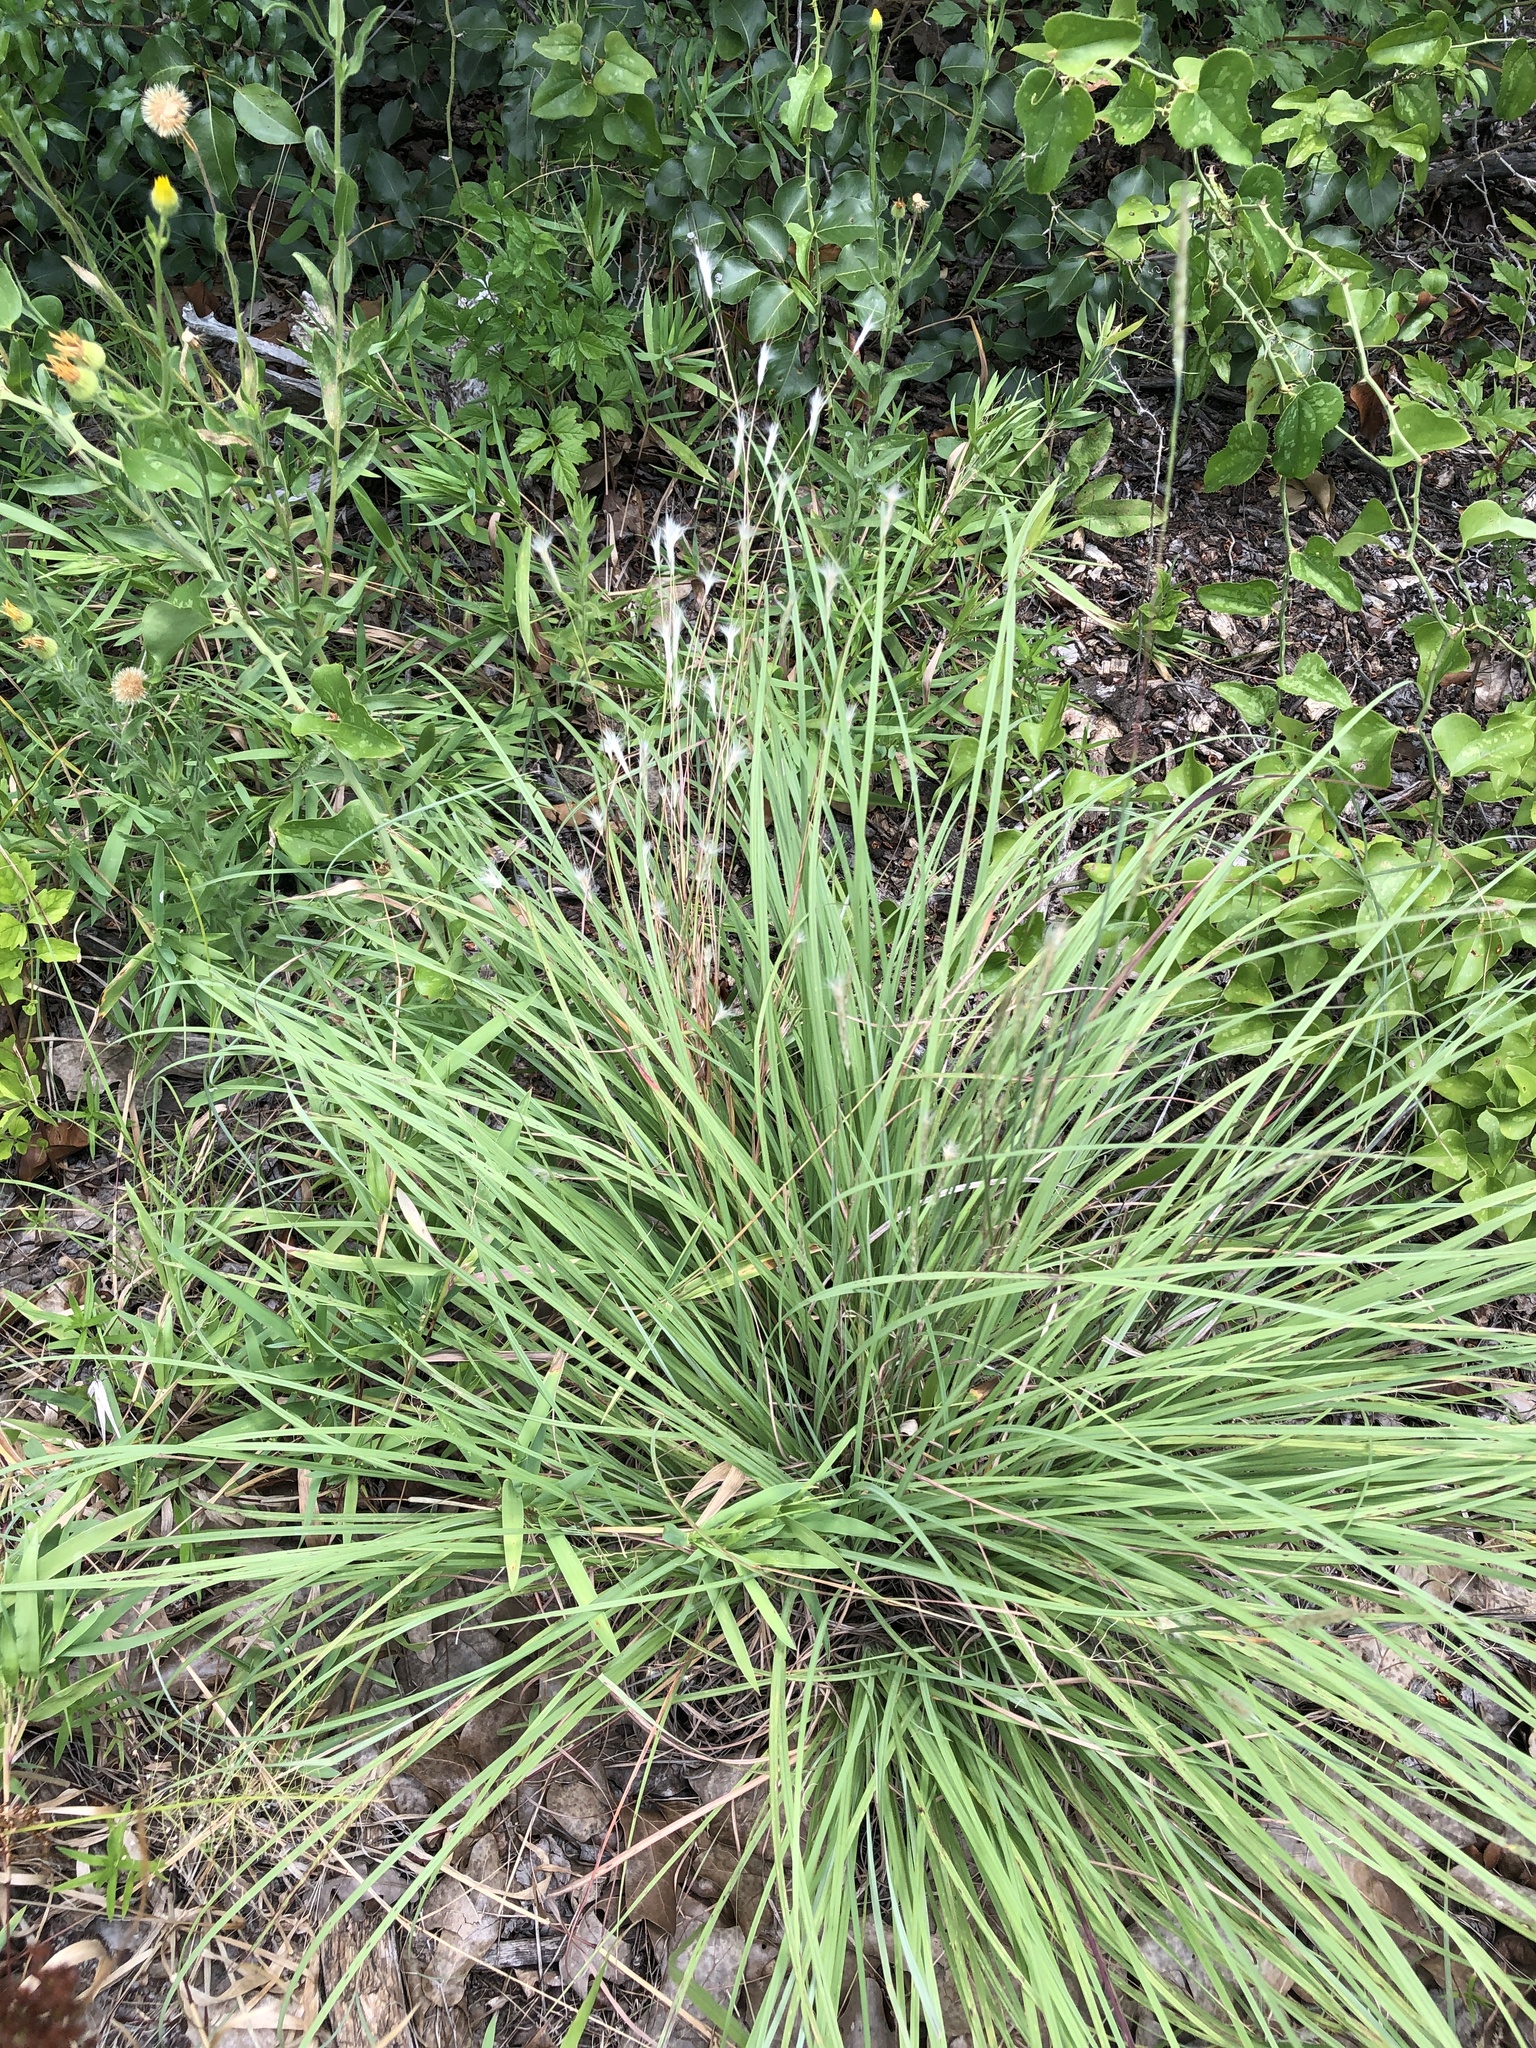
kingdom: Plantae
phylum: Tracheophyta
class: Liliopsida
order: Poales
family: Poaceae
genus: Andropogon
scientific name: Andropogon ternarius
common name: Split bluestem
